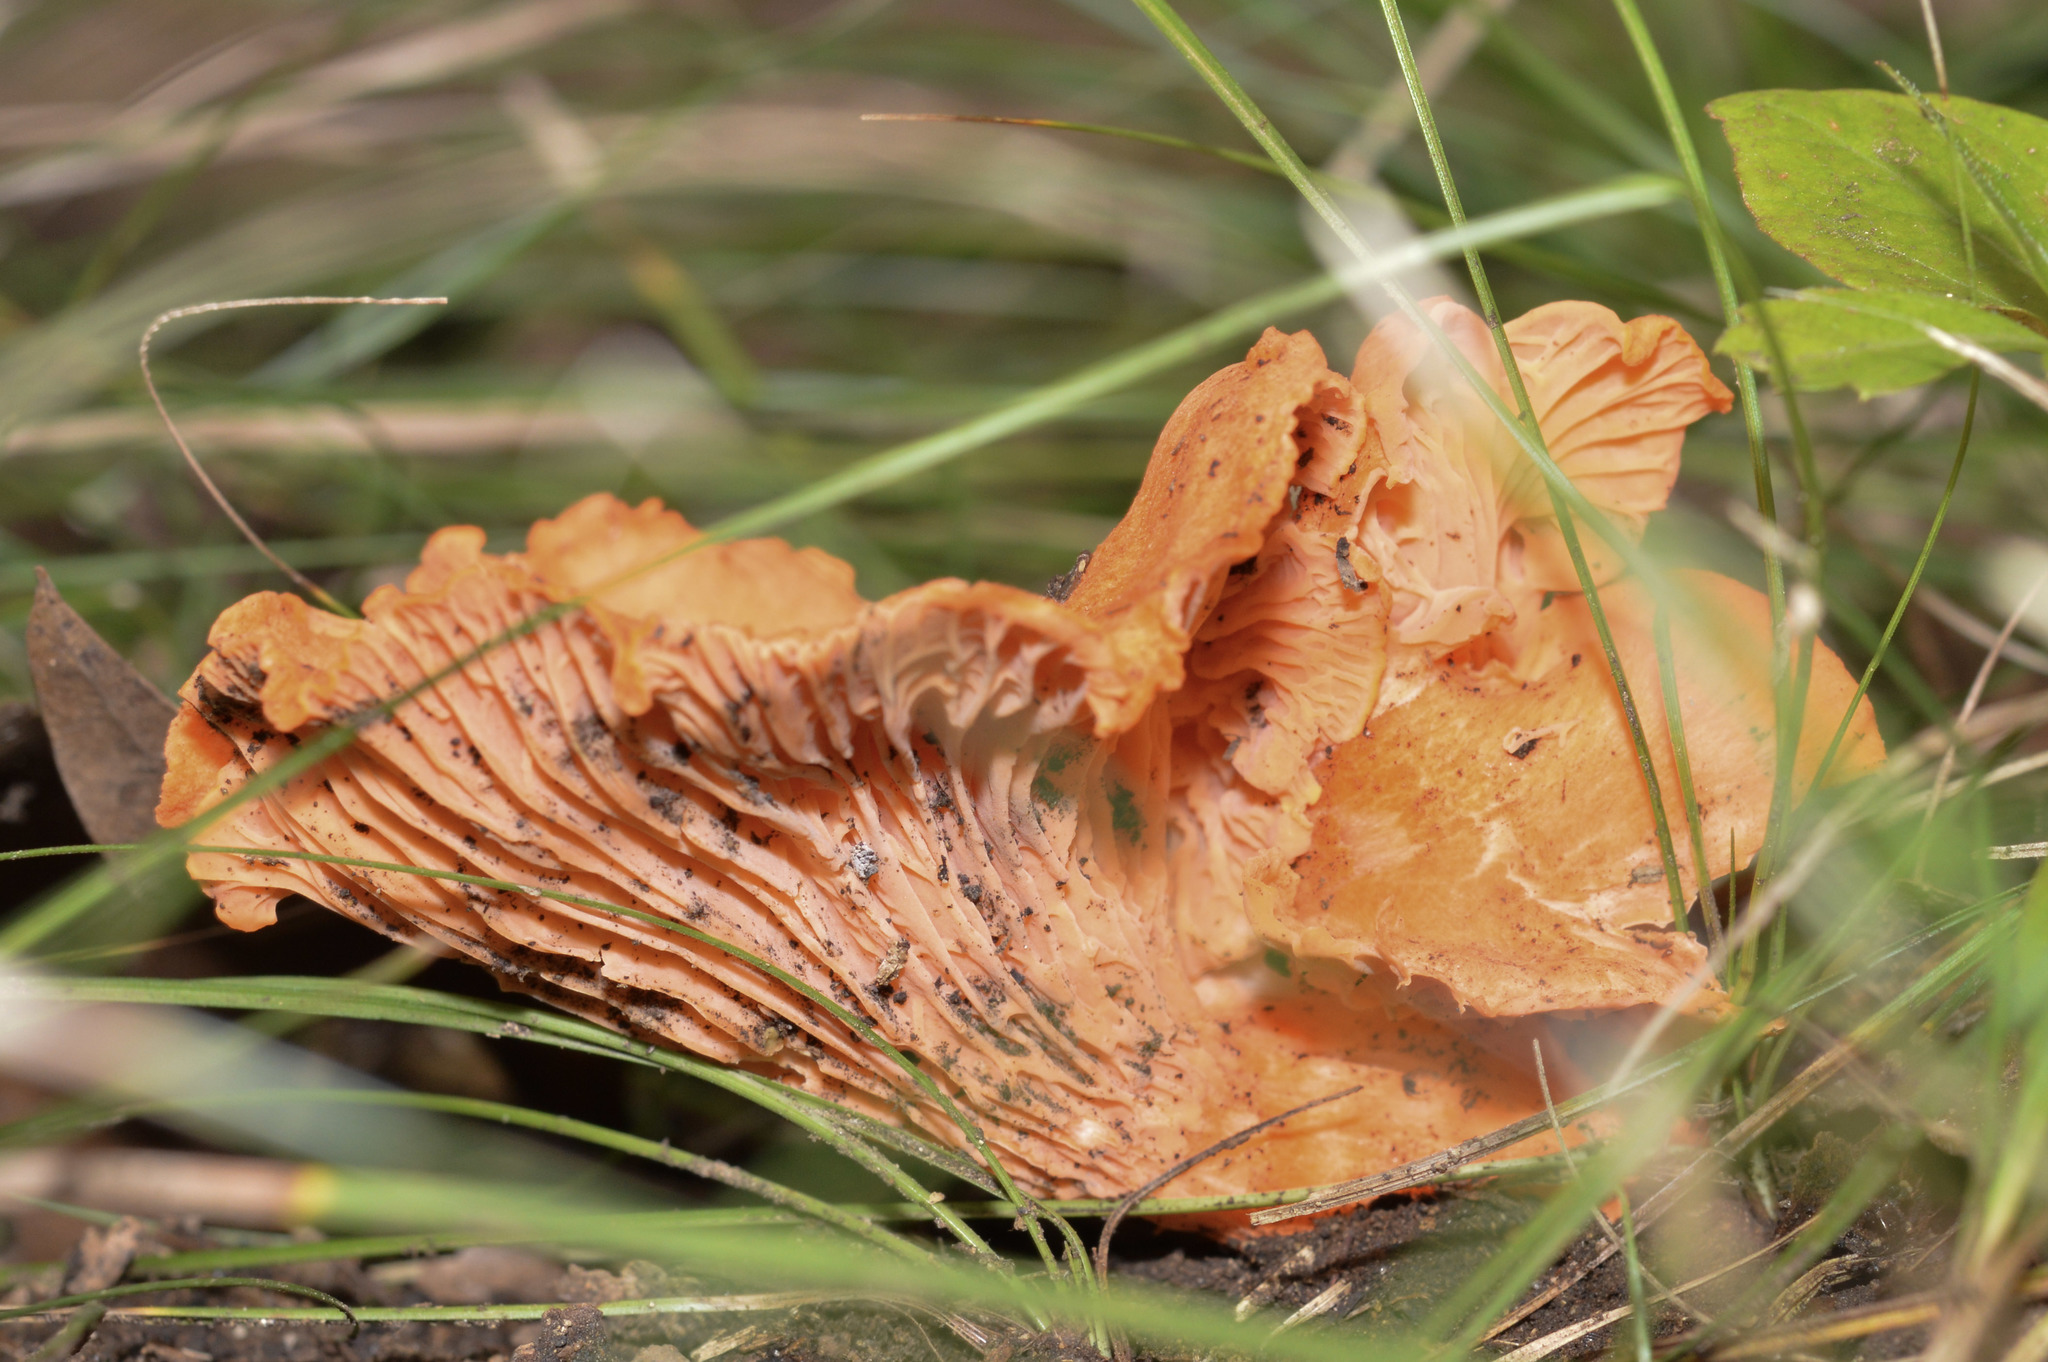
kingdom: Fungi
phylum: Basidiomycota
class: Agaricomycetes
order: Cantharellales
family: Hydnaceae
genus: Cantharellus
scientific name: Cantharellus cinnabarinus
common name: Cinnabar chanterelle
